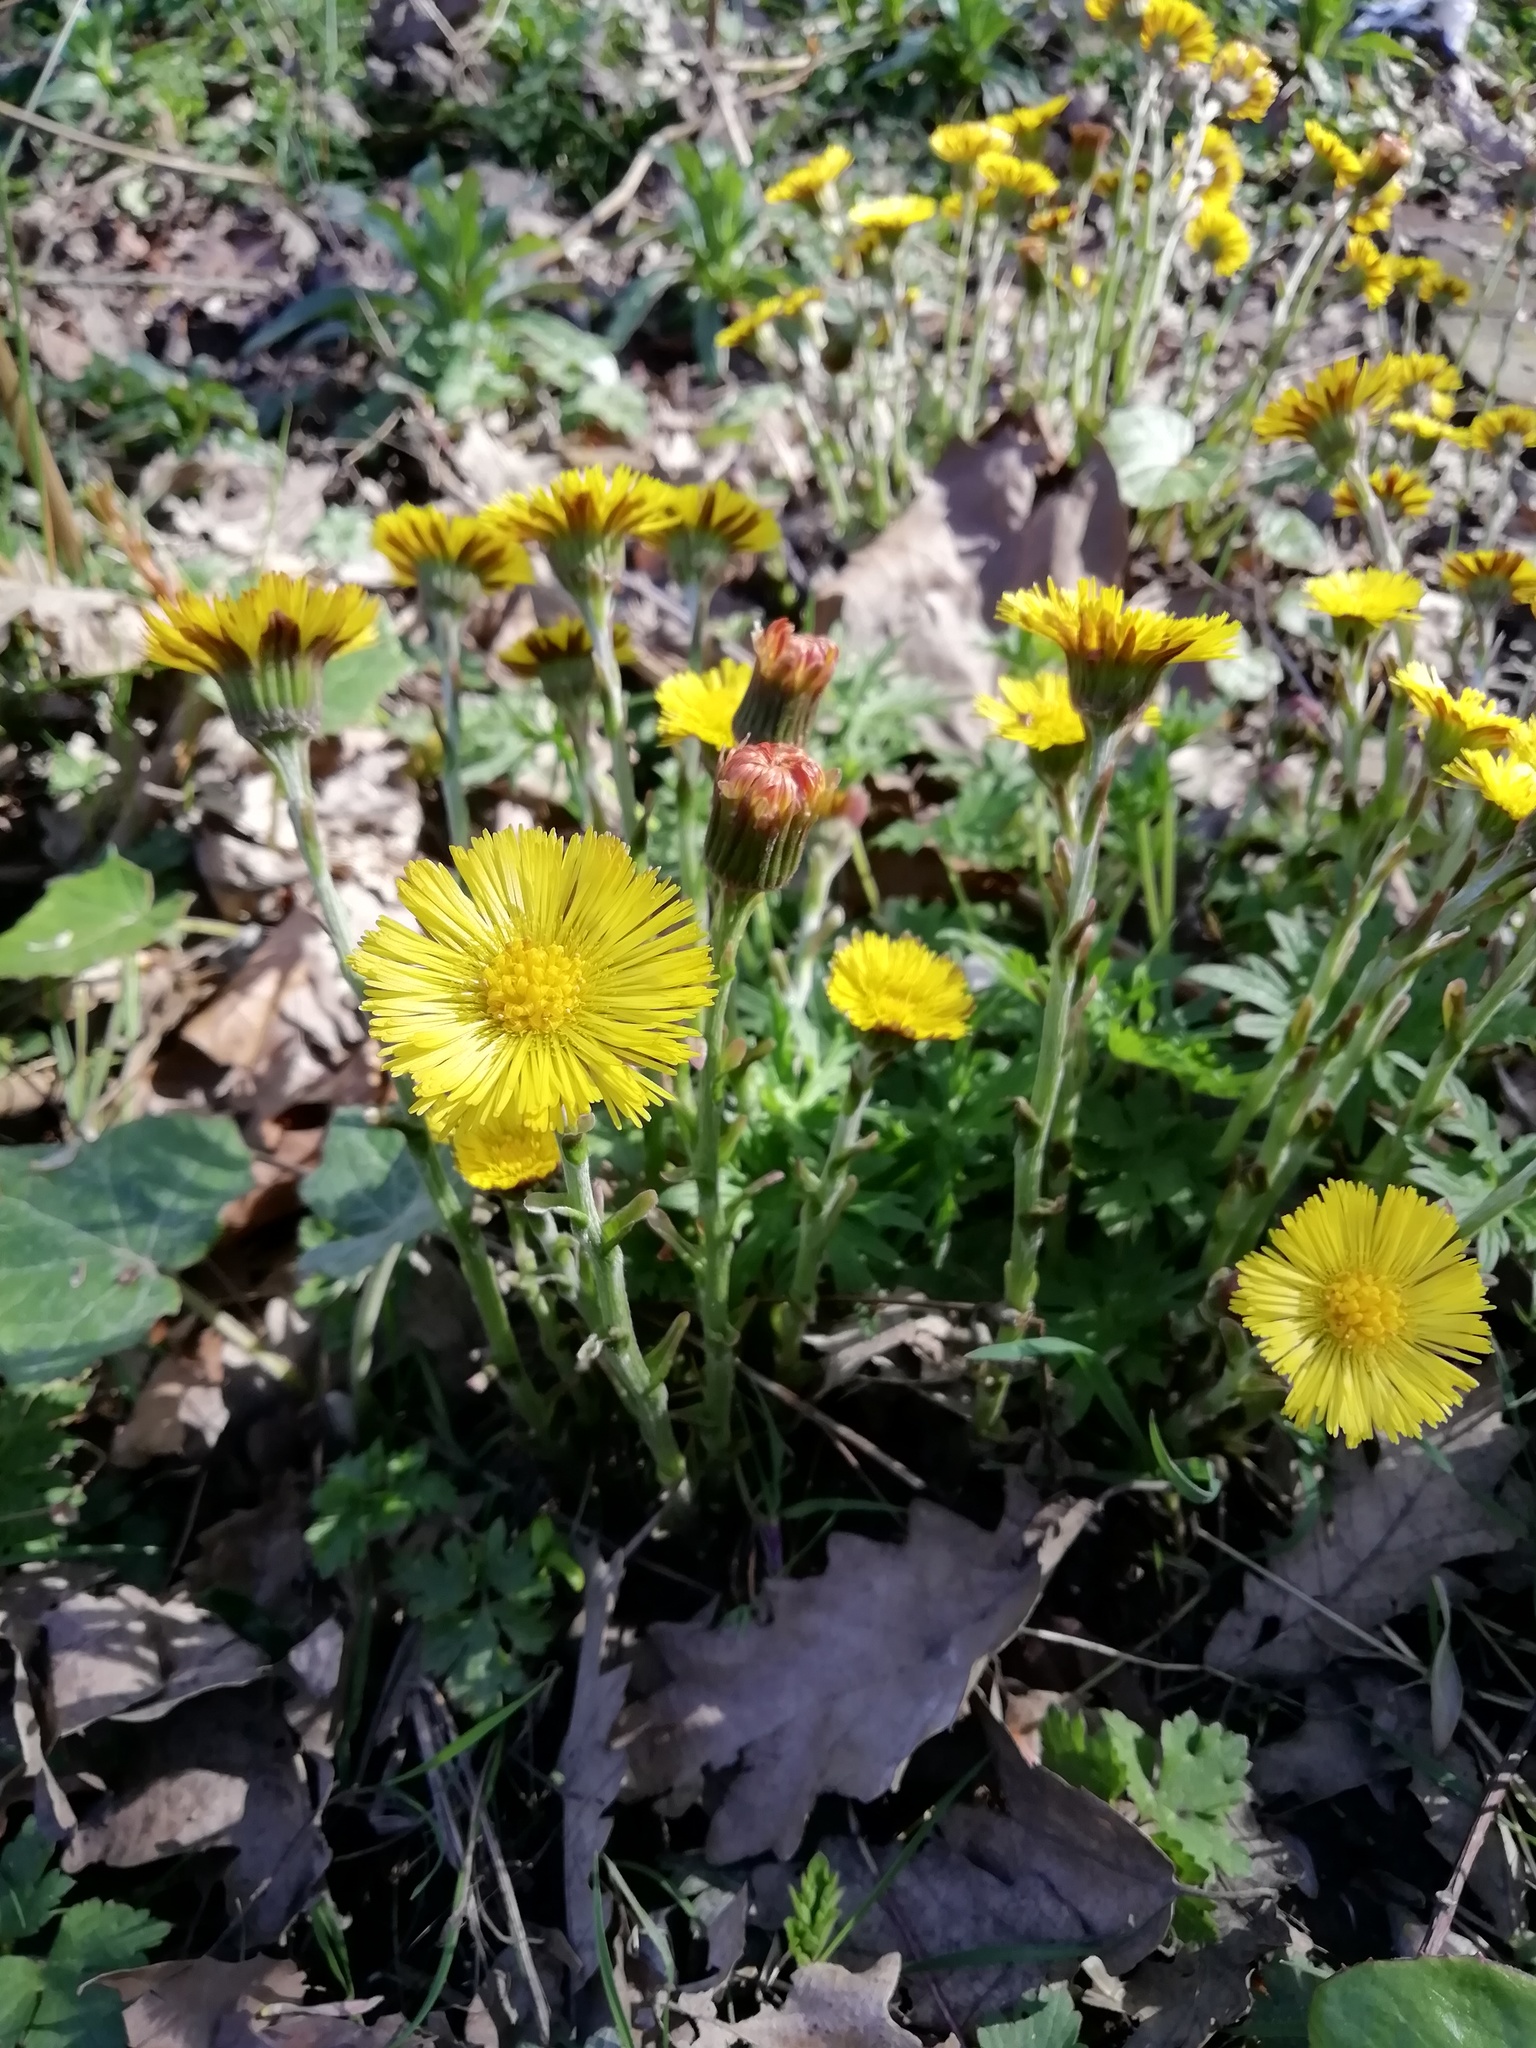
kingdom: Plantae
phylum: Tracheophyta
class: Magnoliopsida
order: Asterales
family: Asteraceae
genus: Tussilago
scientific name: Tussilago farfara
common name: Coltsfoot
